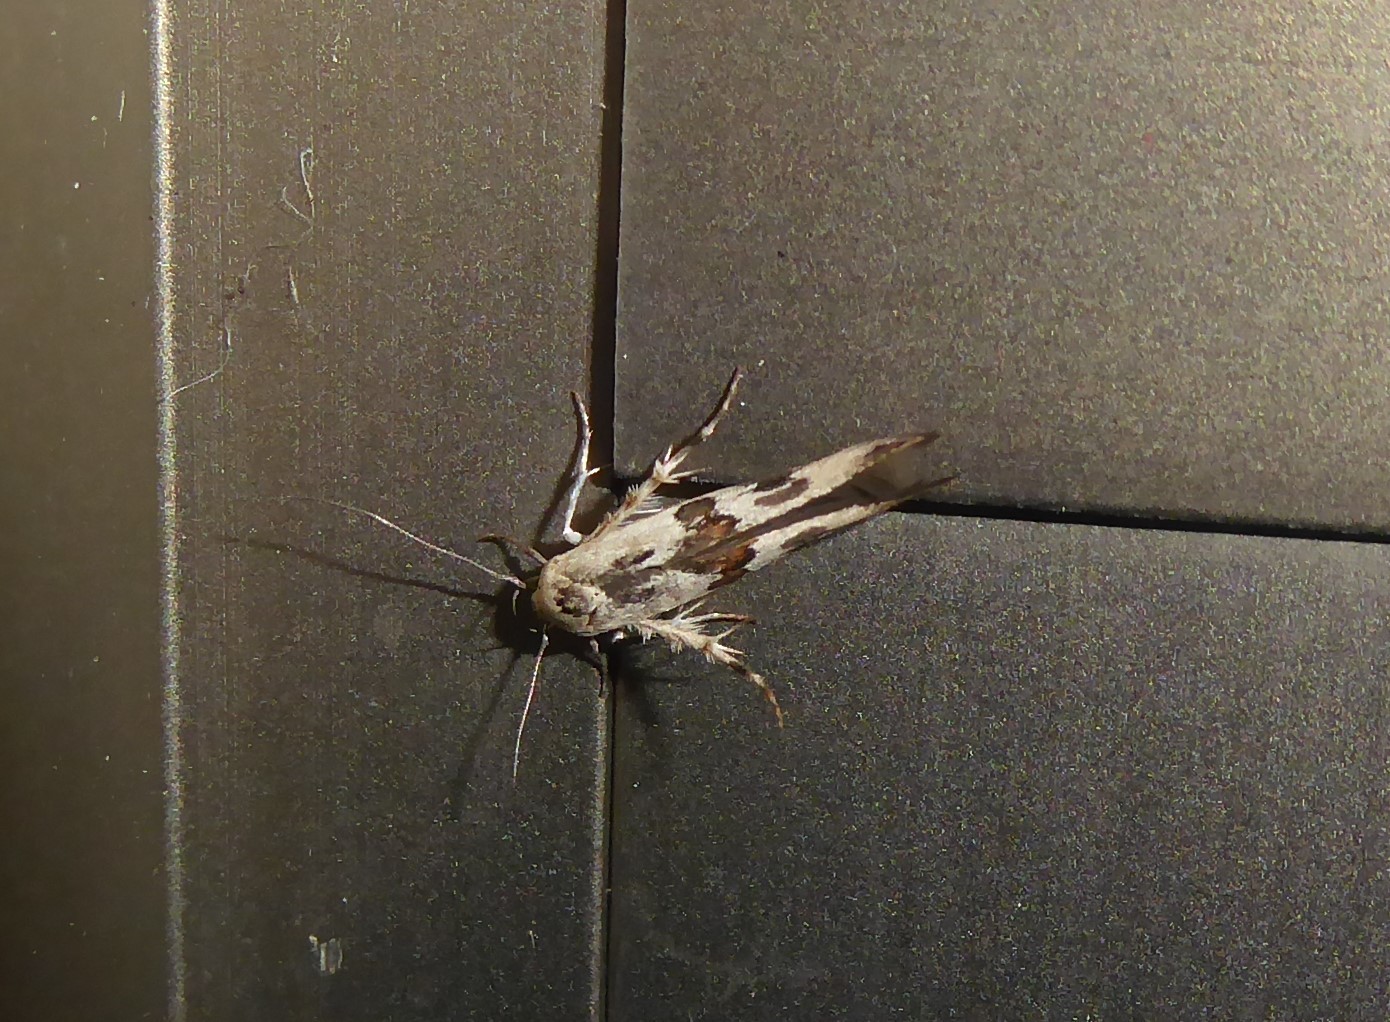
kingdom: Animalia
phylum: Arthropoda
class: Insecta
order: Lepidoptera
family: Stathmopodidae
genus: Stathmopoda
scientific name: Stathmopoda melanochra
